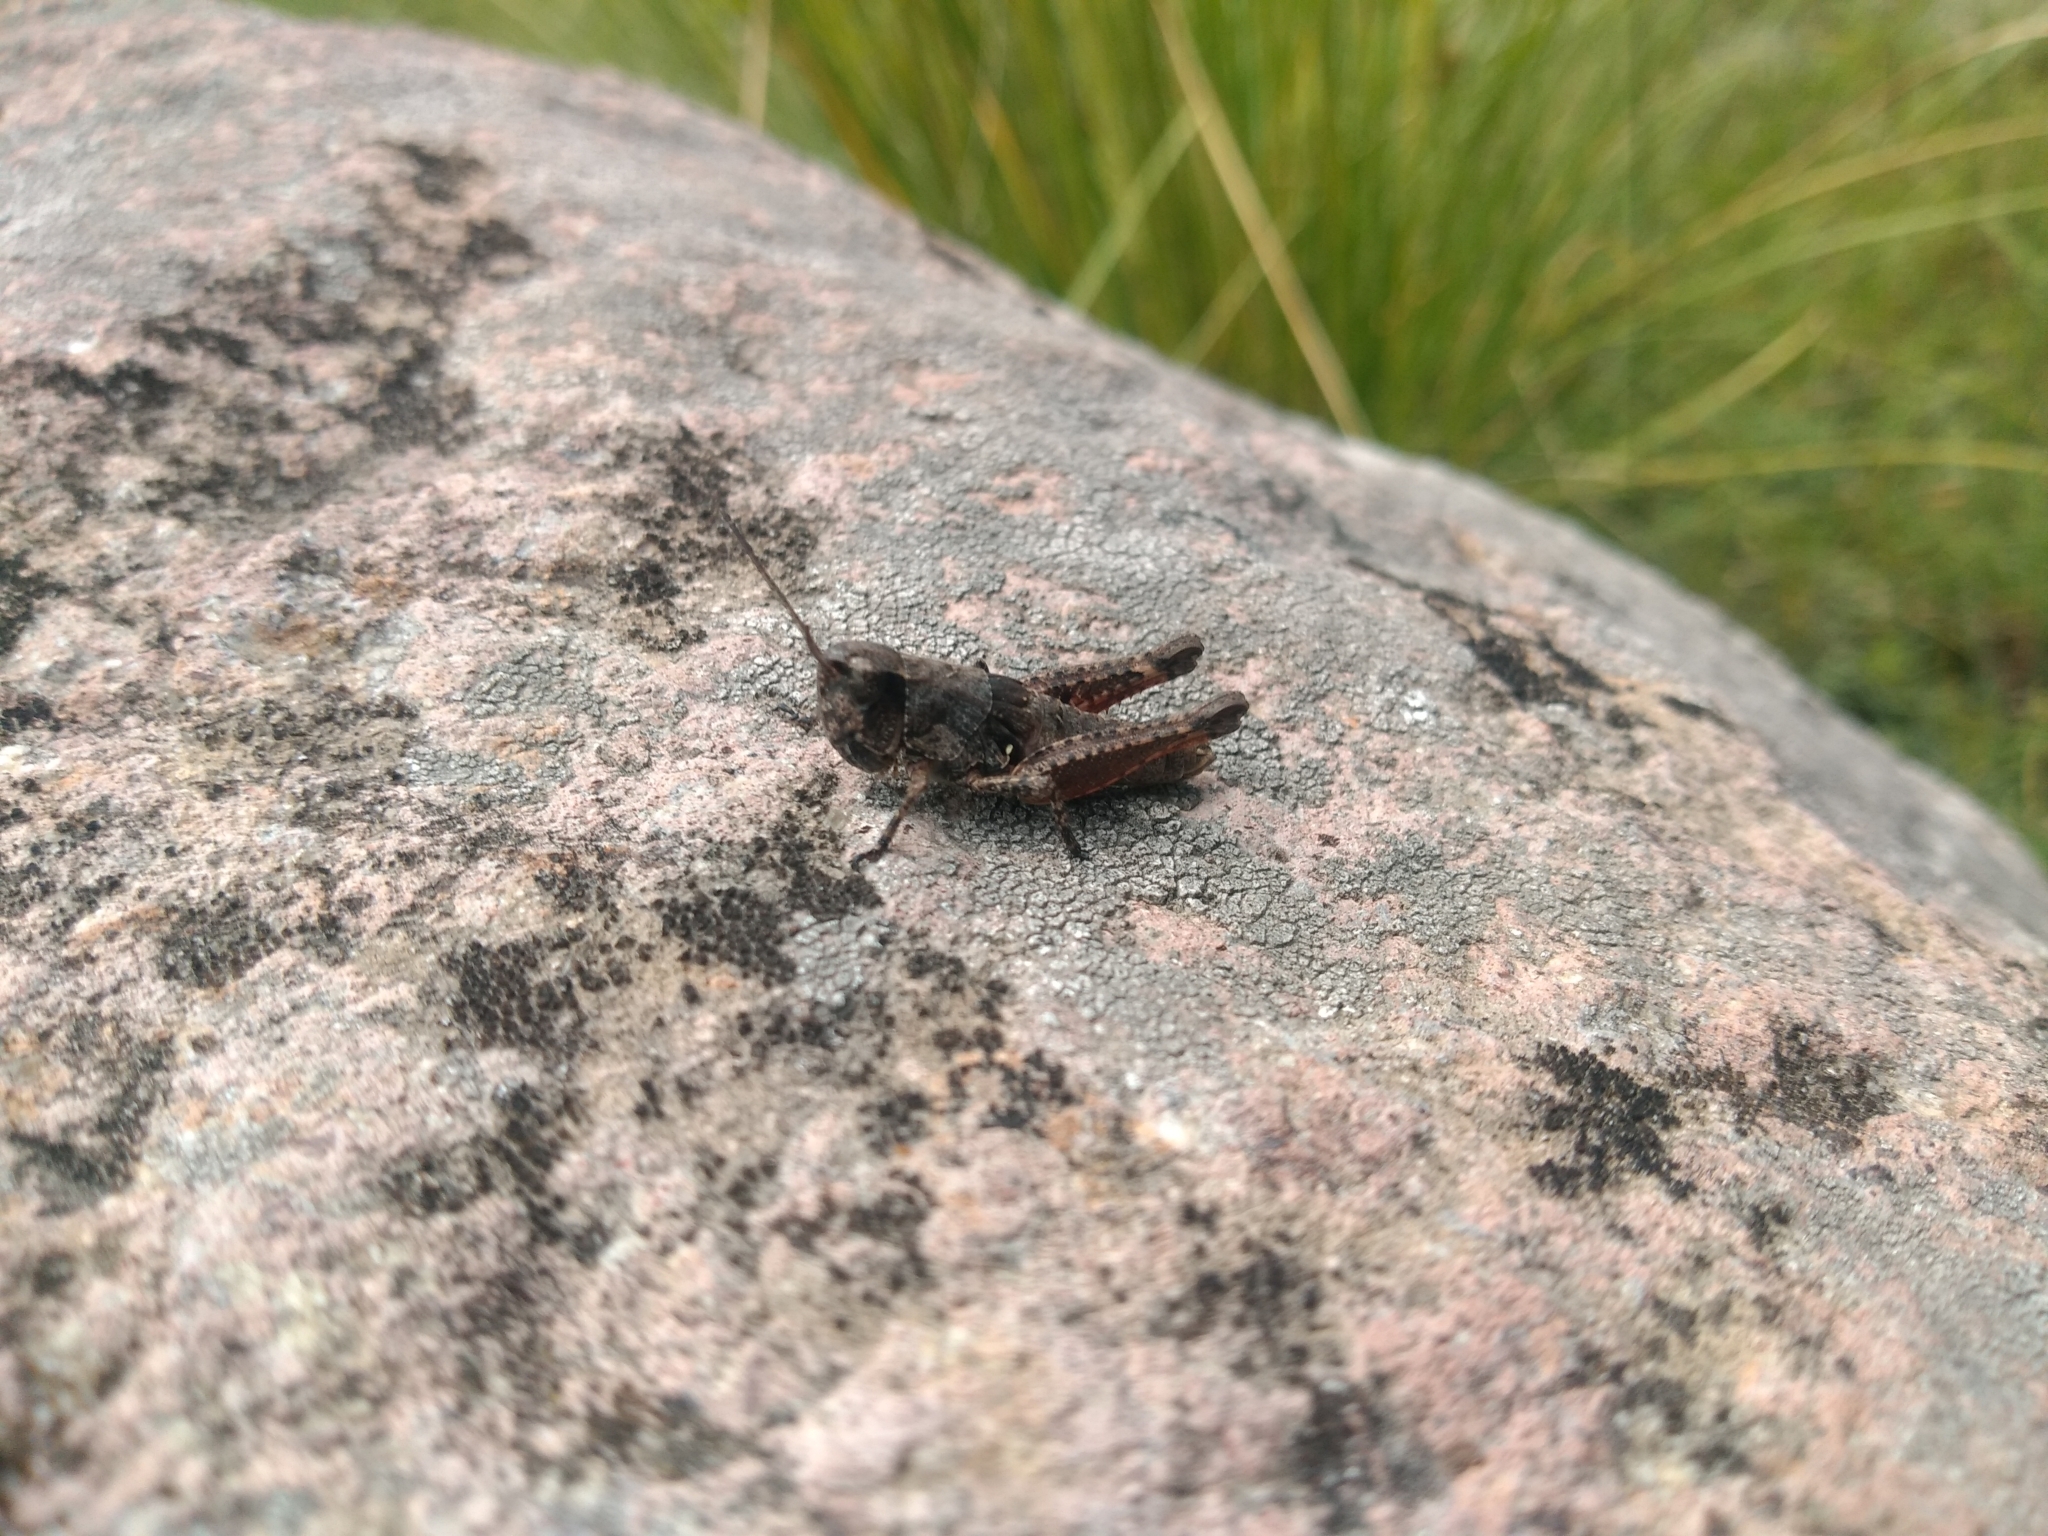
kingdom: Animalia
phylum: Arthropoda
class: Insecta
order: Orthoptera
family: Acrididae
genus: Boopedon
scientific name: Boopedon rufipes
